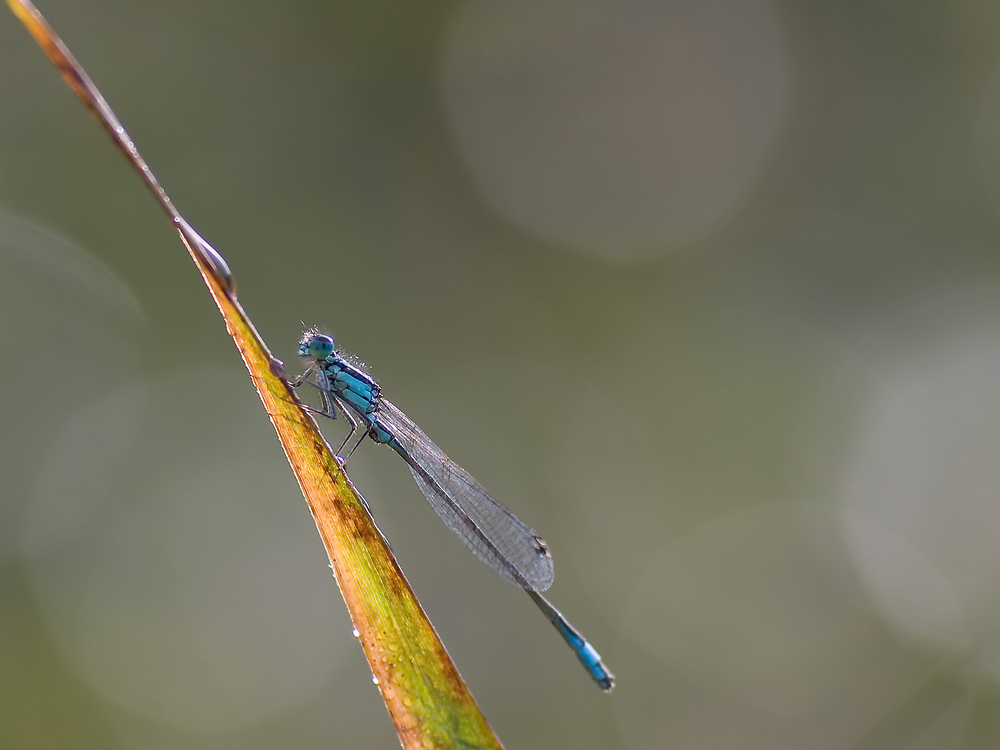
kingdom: Animalia
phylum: Arthropoda
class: Insecta
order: Odonata
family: Coenagrionidae
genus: Ischnura
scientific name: Ischnura elegans
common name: Blue-tailed damselfly
